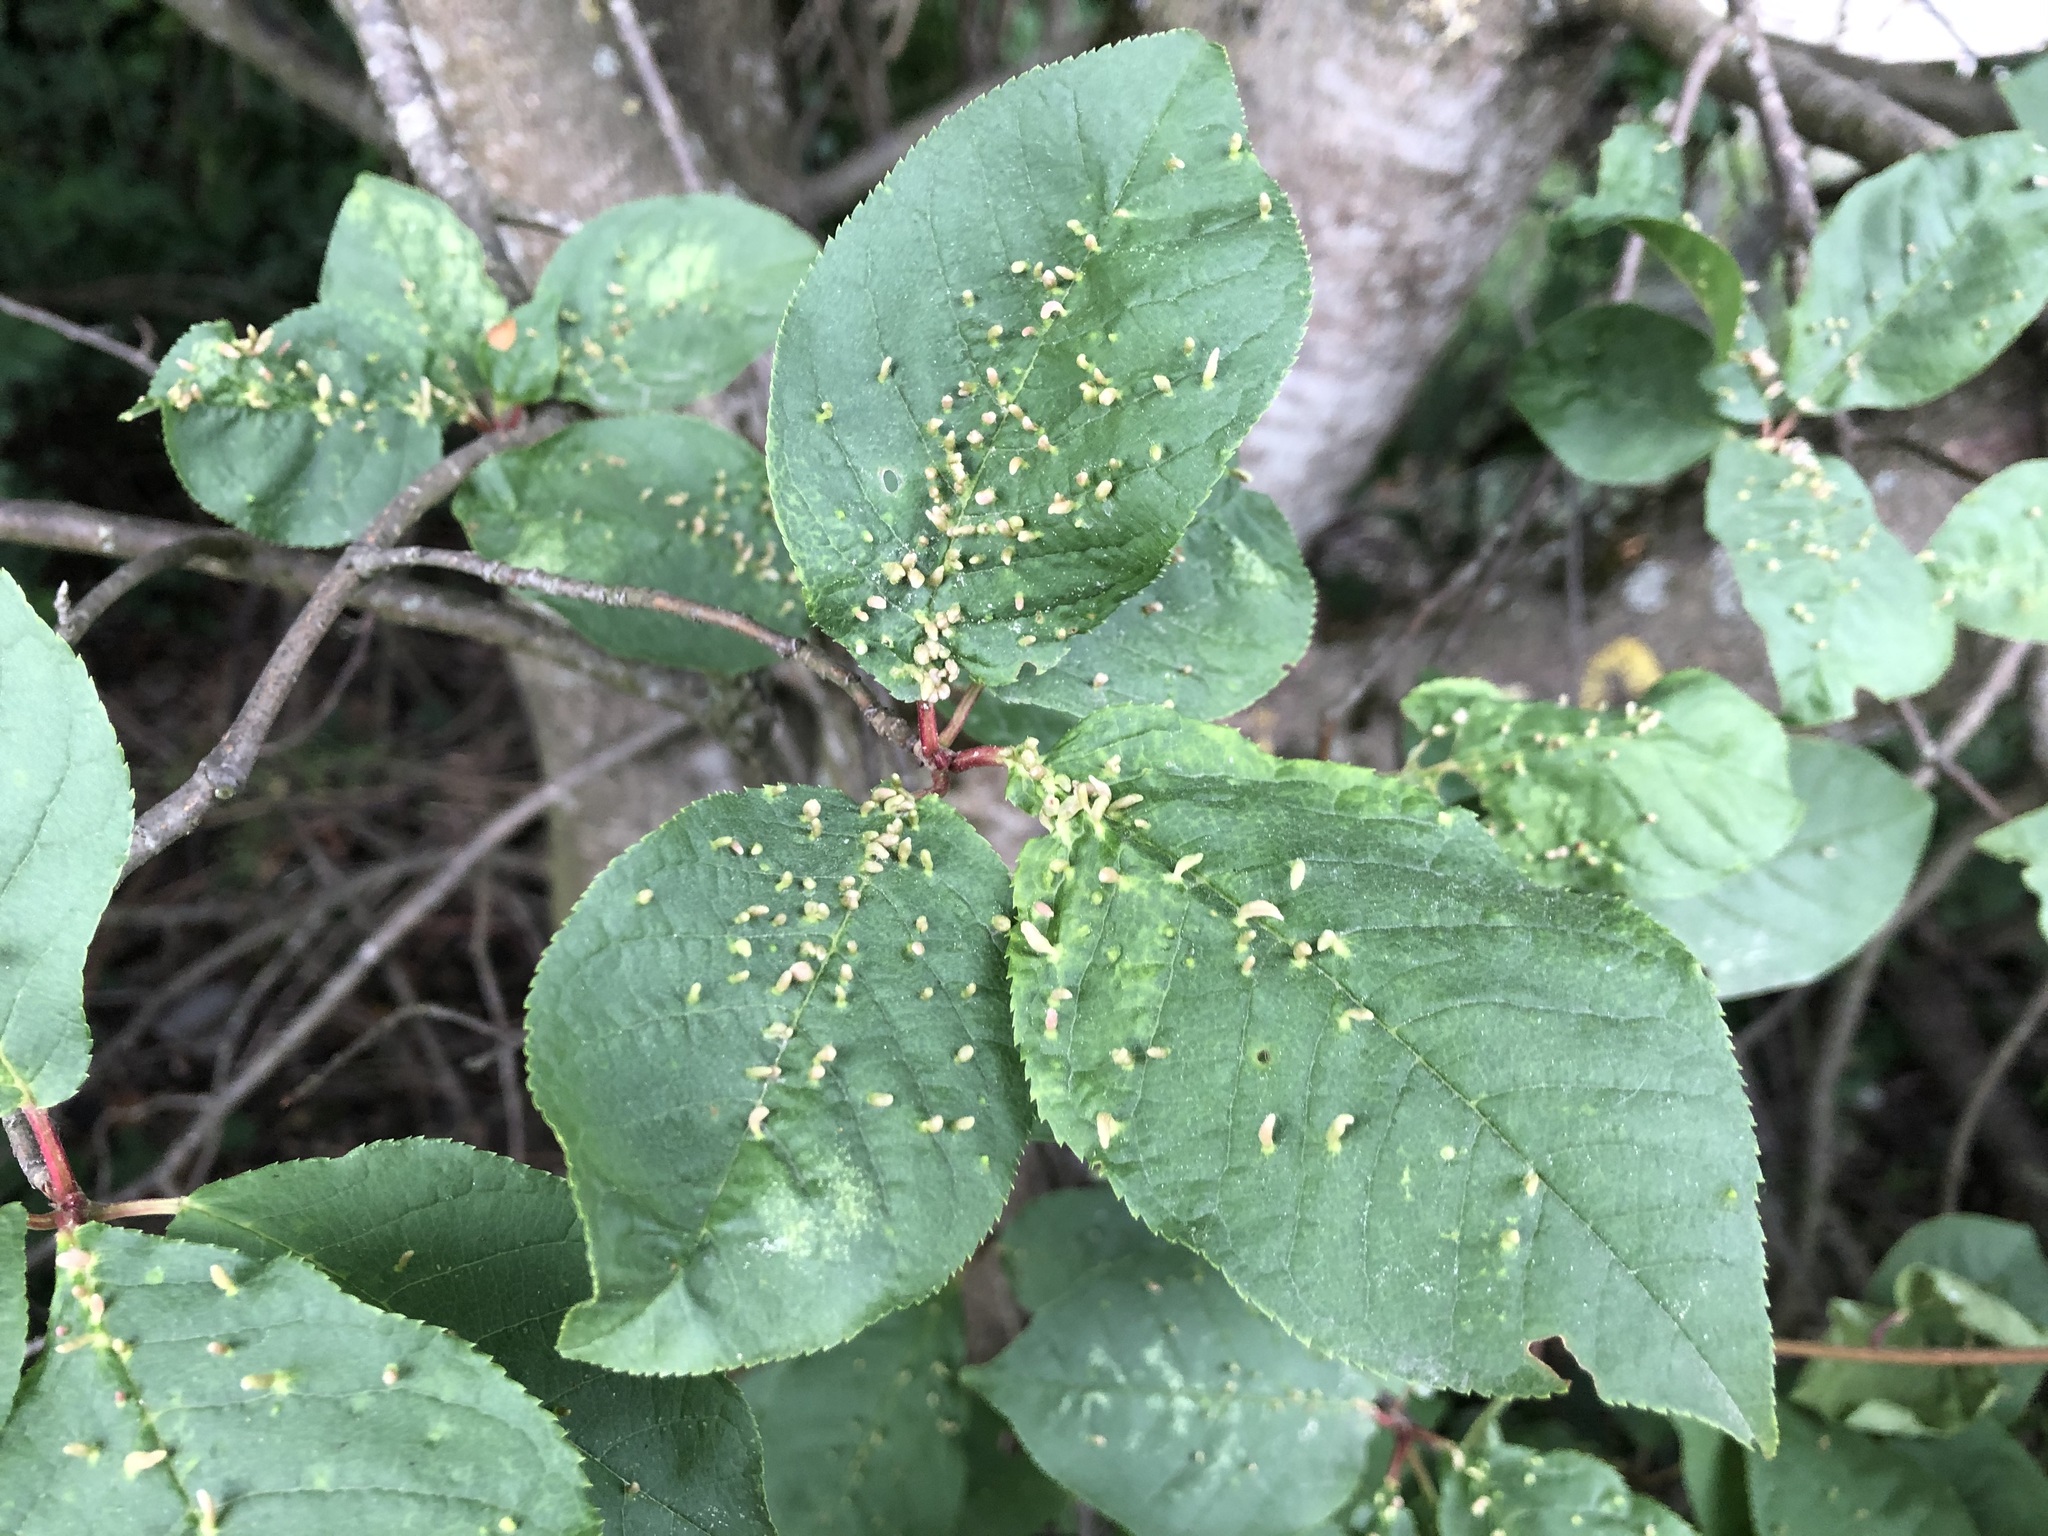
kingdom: Animalia
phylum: Arthropoda
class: Arachnida
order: Trombidiformes
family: Eriophyidae
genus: Phyllocoptes
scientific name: Phyllocoptes eupadi
